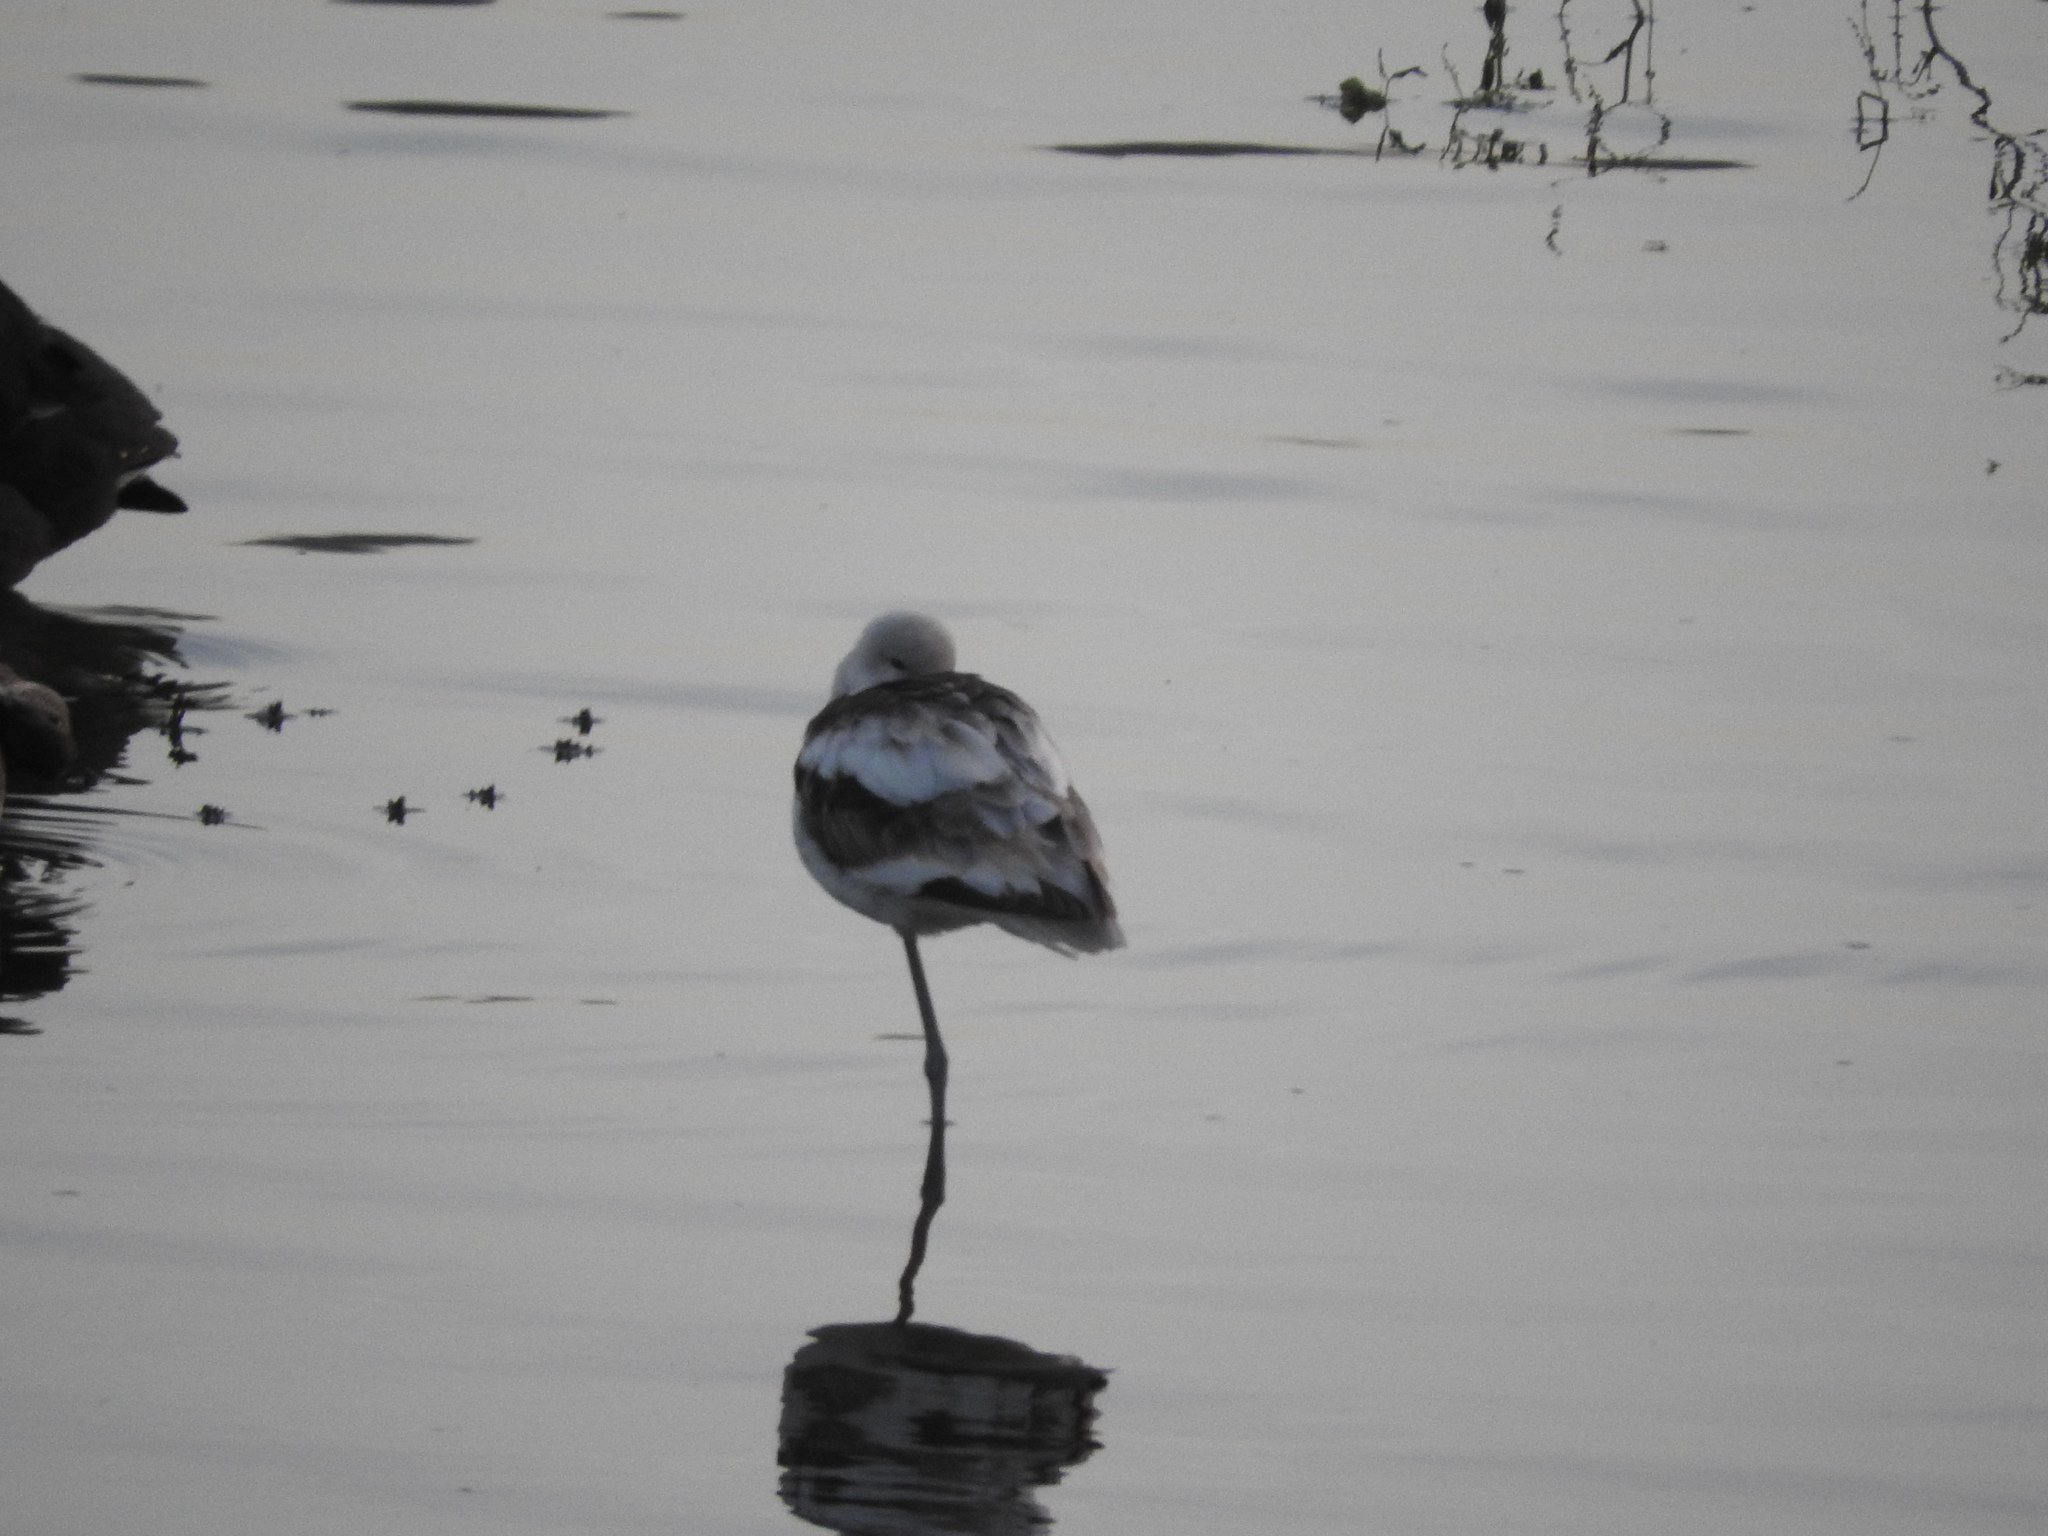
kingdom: Animalia
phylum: Chordata
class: Aves
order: Charadriiformes
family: Recurvirostridae
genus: Recurvirostra
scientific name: Recurvirostra americana
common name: American avocet
